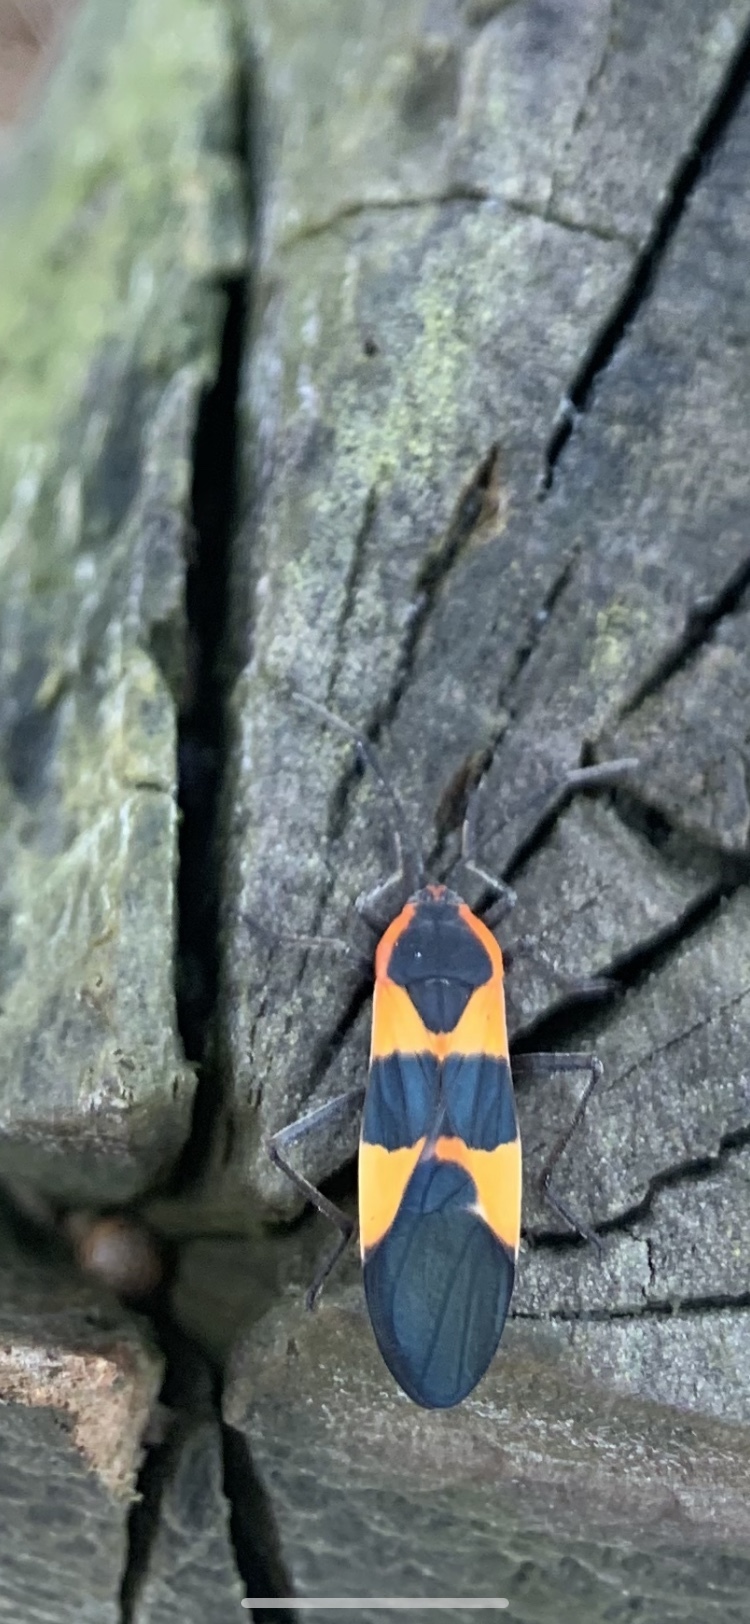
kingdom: Animalia
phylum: Arthropoda
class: Insecta
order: Hemiptera
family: Lygaeidae
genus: Oncopeltus
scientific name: Oncopeltus fasciatus
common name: Large milkweed bug
